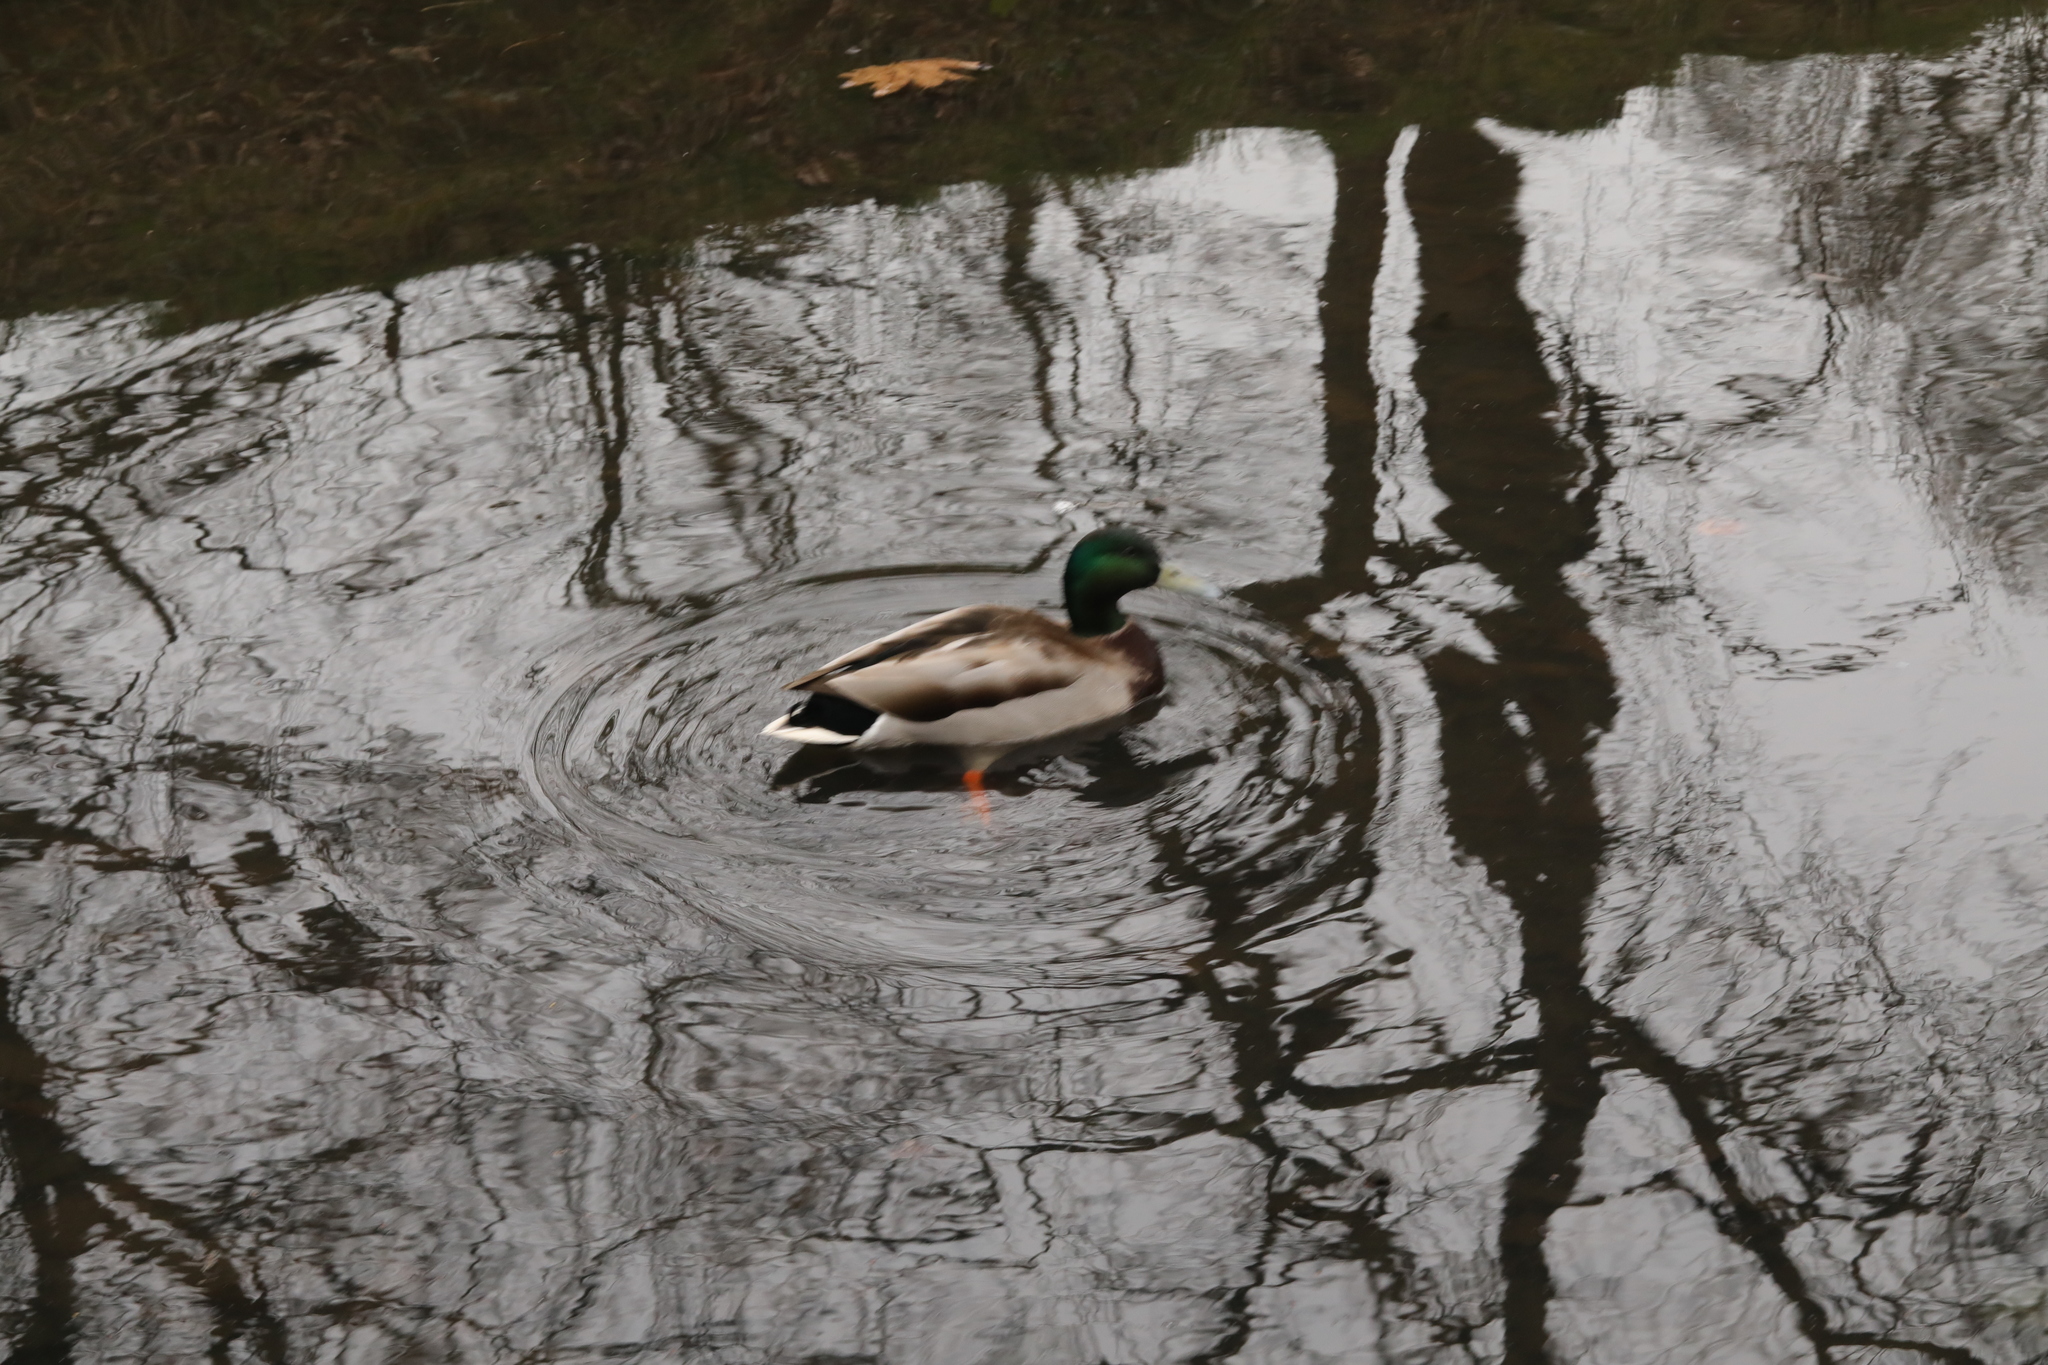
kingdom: Animalia
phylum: Chordata
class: Aves
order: Anseriformes
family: Anatidae
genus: Anas
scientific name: Anas platyrhynchos
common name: Mallard
